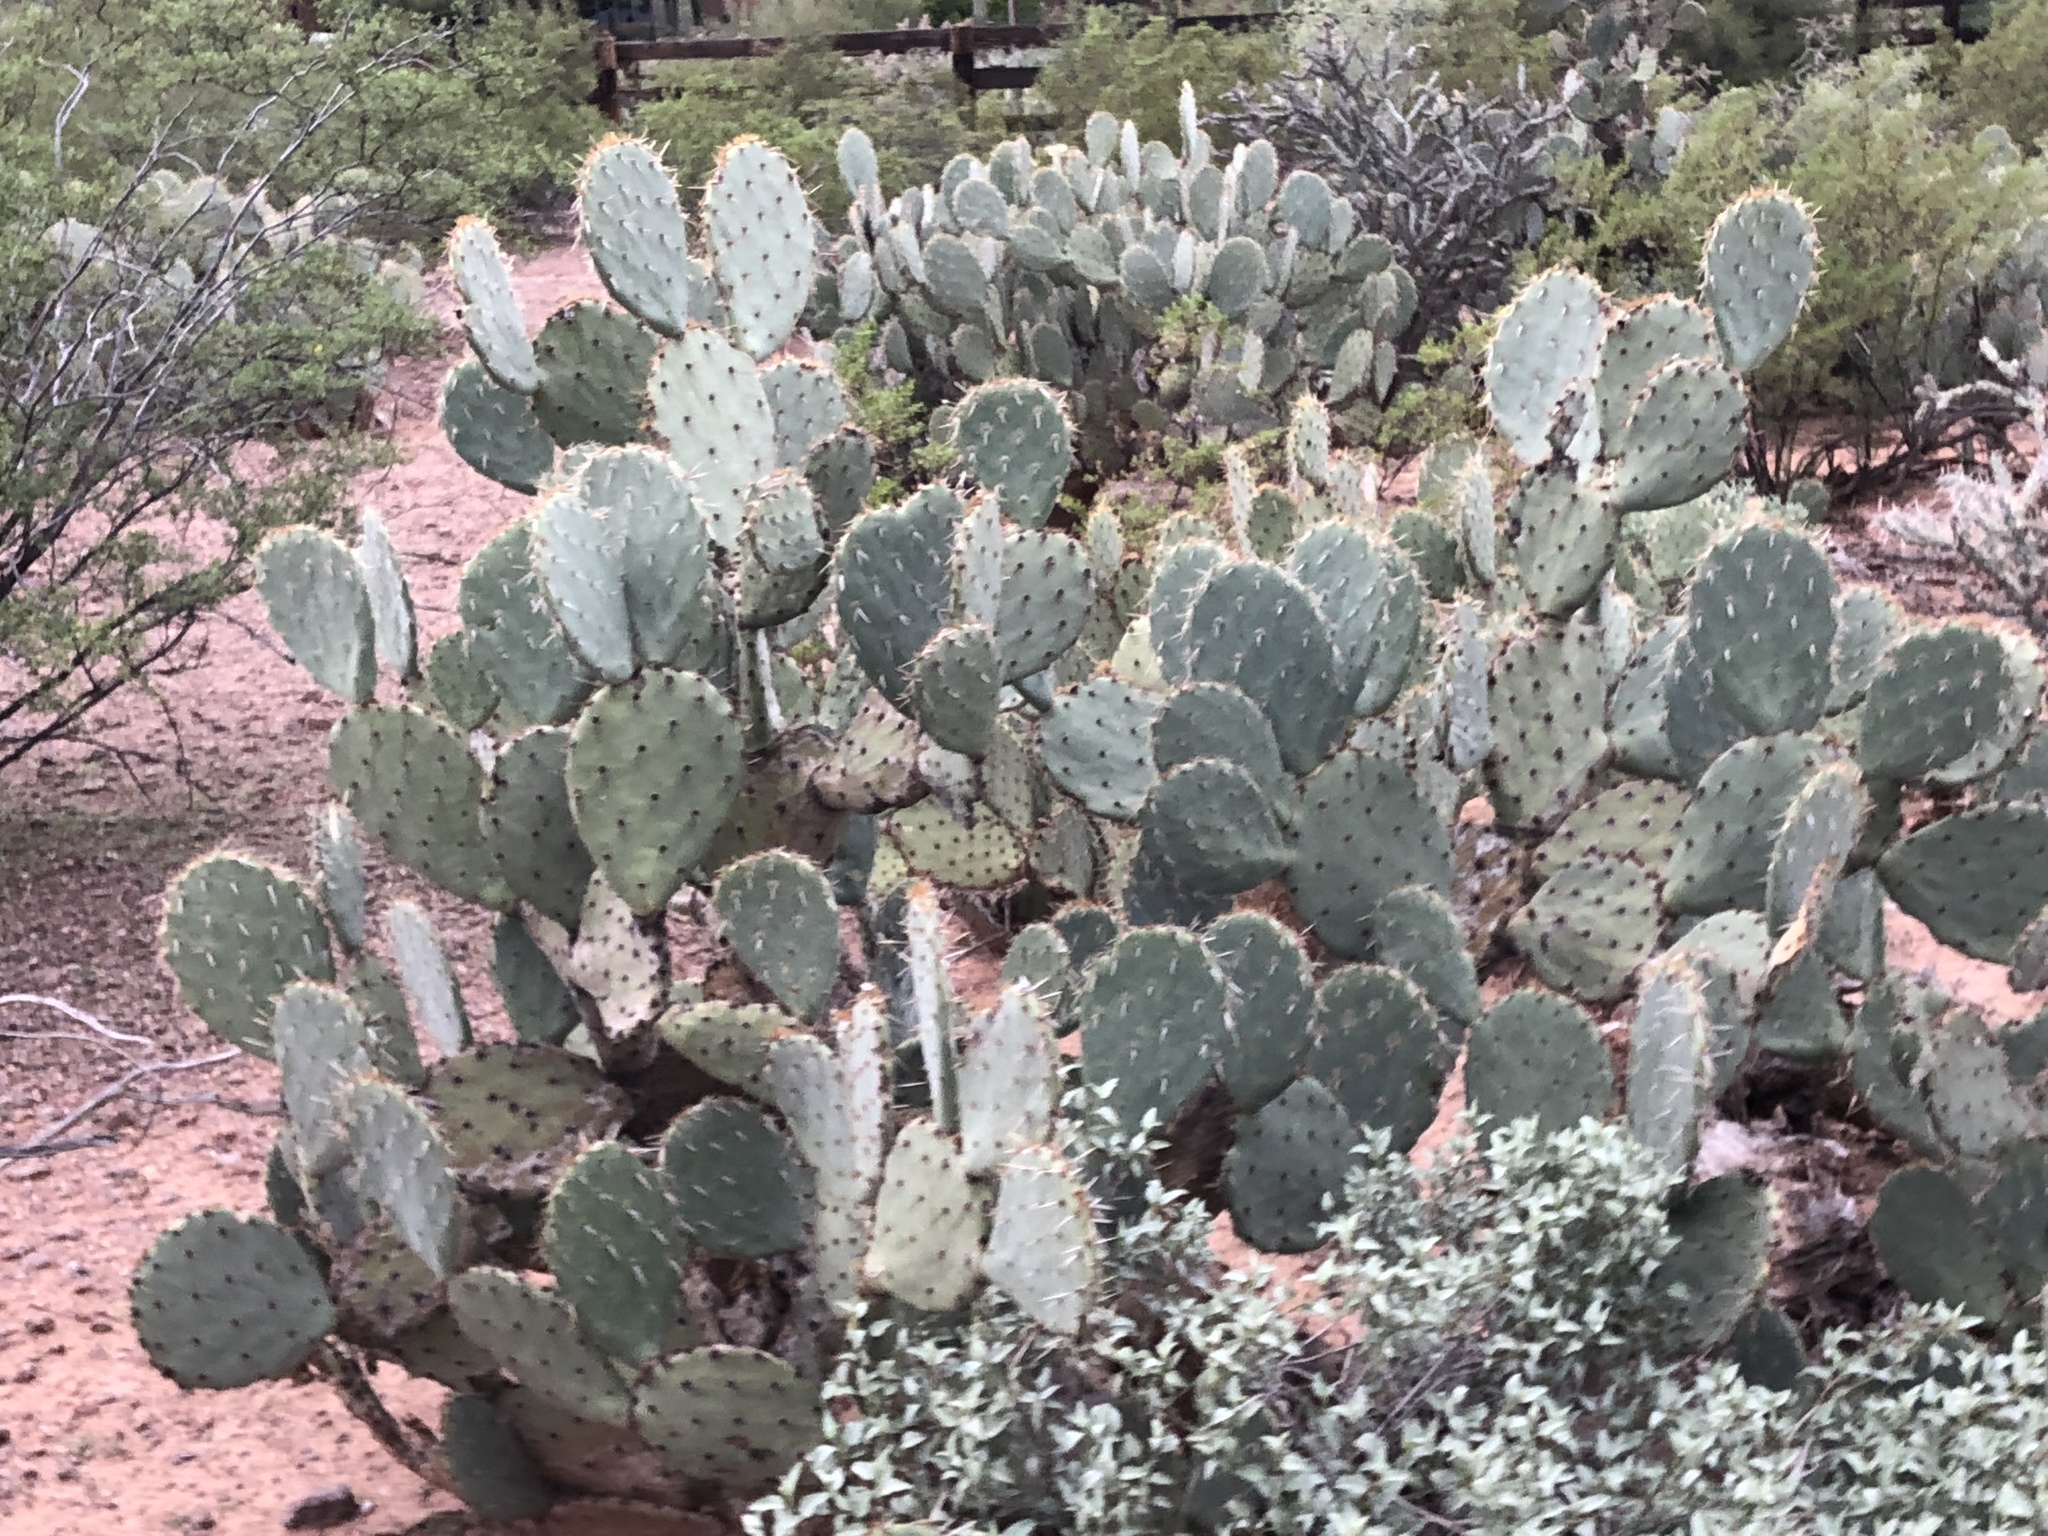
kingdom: Plantae
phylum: Tracheophyta
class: Magnoliopsida
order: Caryophyllales
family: Cactaceae
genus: Opuntia
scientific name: Opuntia engelmannii
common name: Cactus-apple
